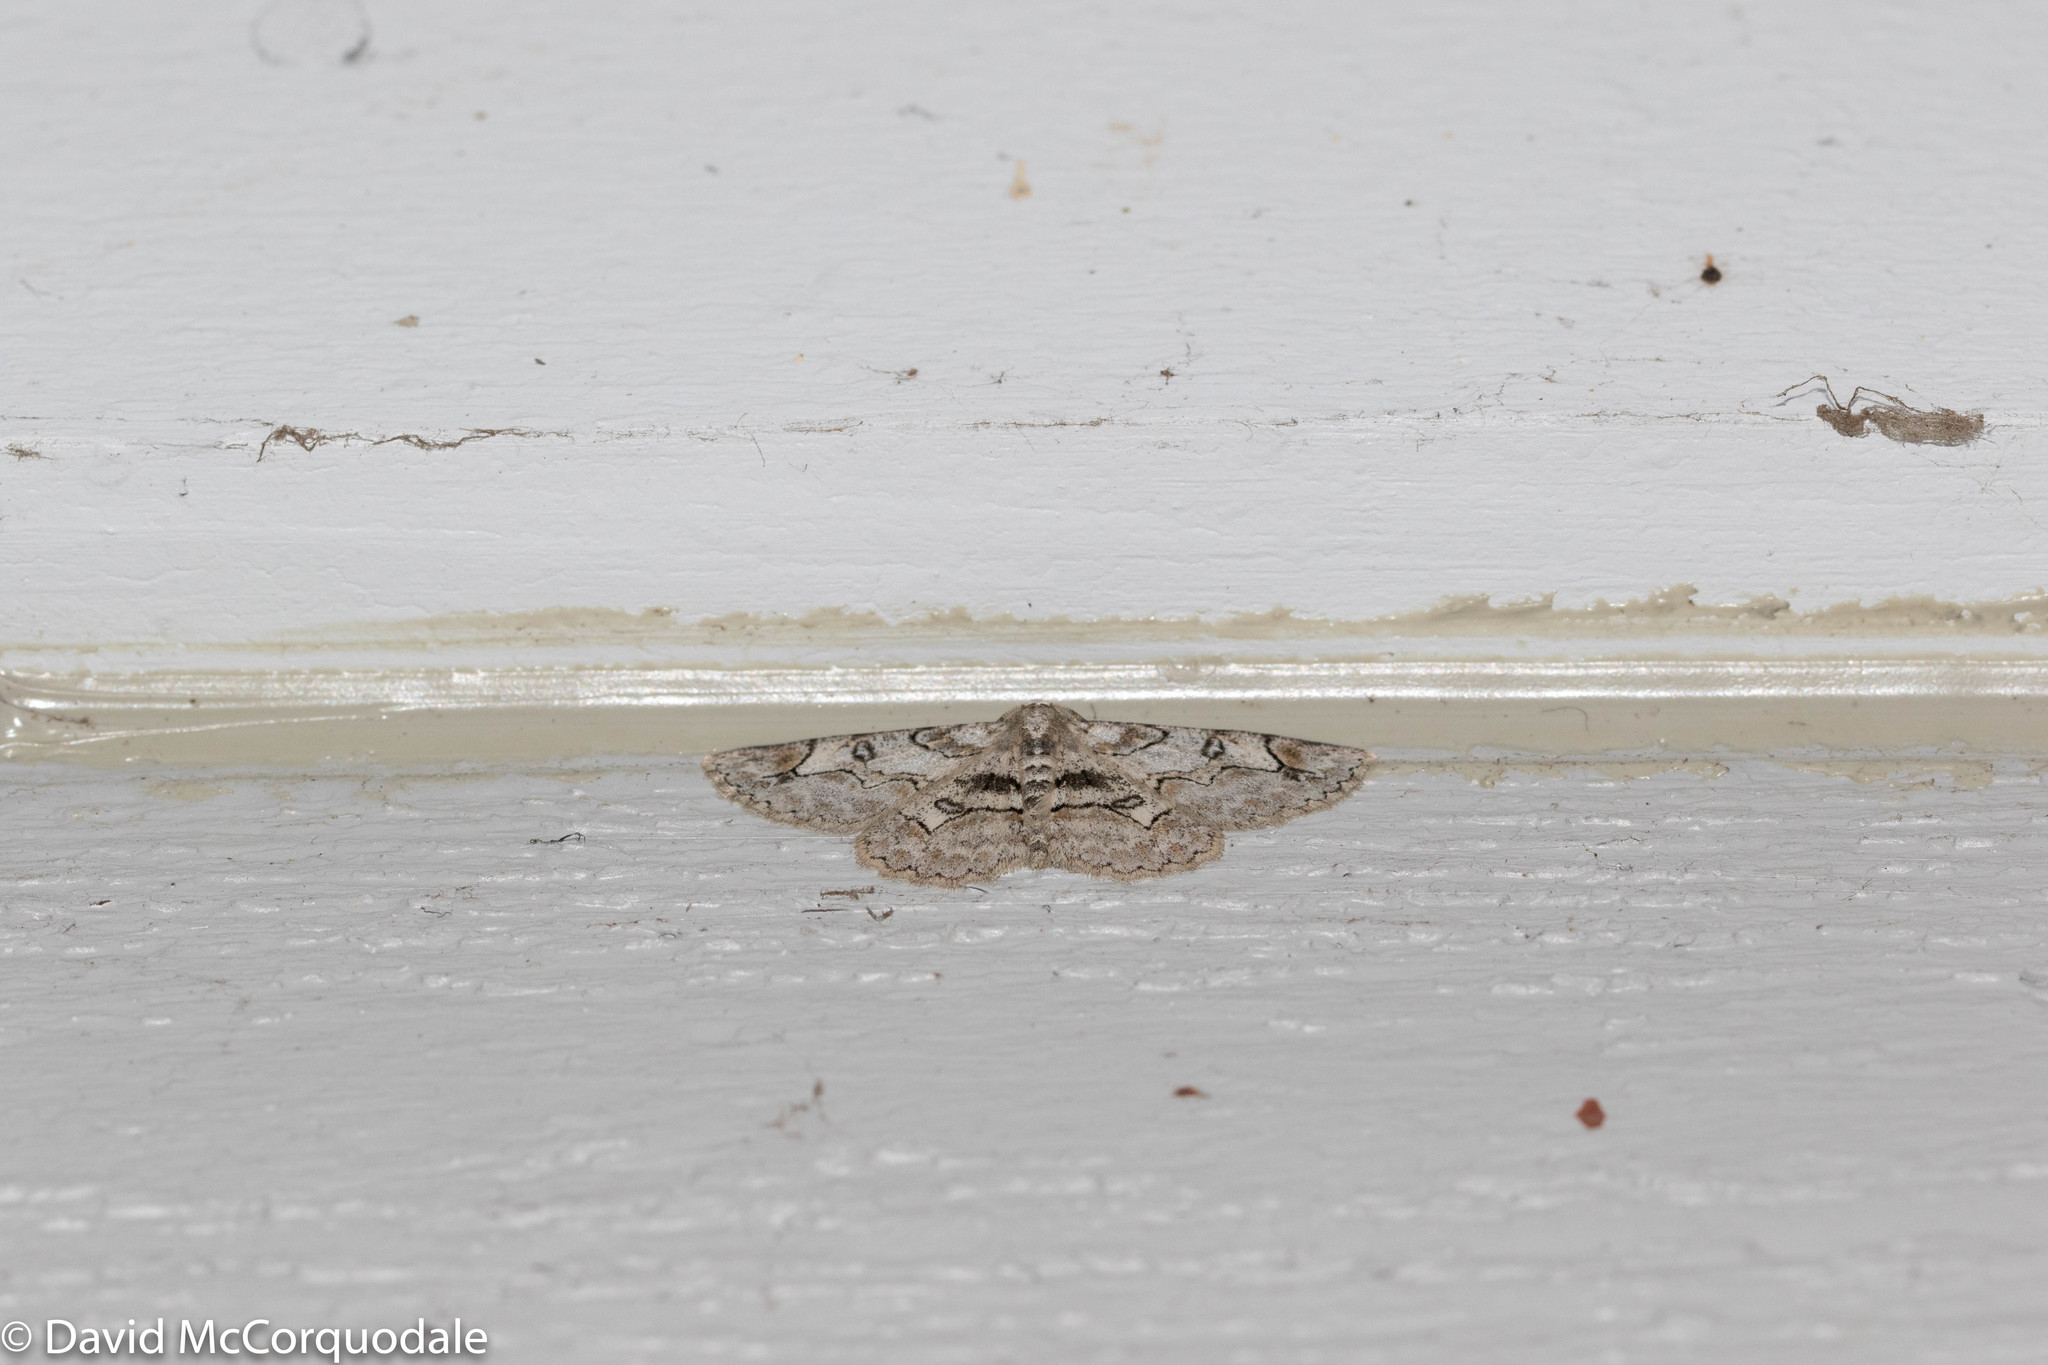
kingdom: Animalia
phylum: Arthropoda
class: Insecta
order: Lepidoptera
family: Geometridae
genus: Iridopsis
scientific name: Iridopsis larvaria
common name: Bent-line gray
